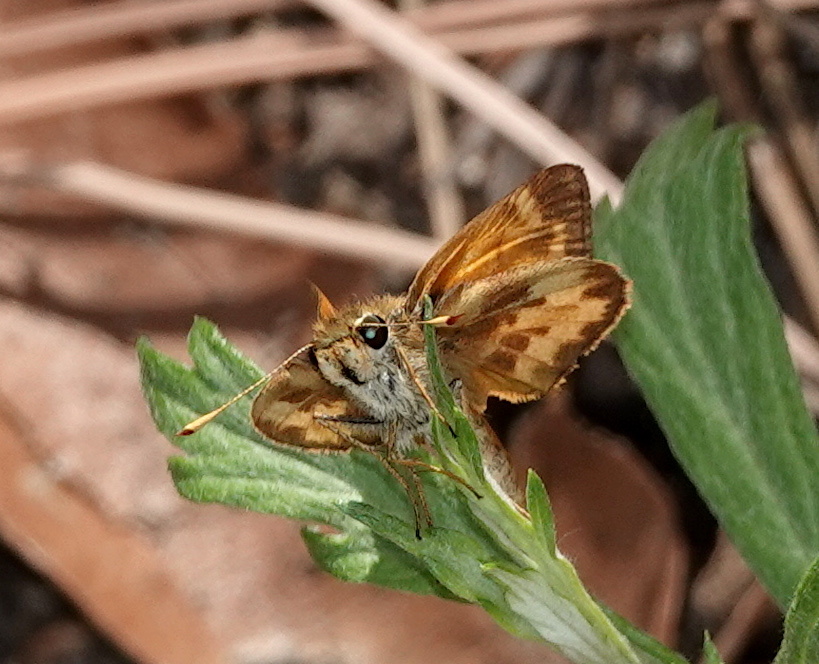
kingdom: Animalia
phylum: Arthropoda
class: Insecta
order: Lepidoptera
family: Hesperiidae
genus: Lon
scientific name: Lon taxiles
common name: Taxiles skipper
